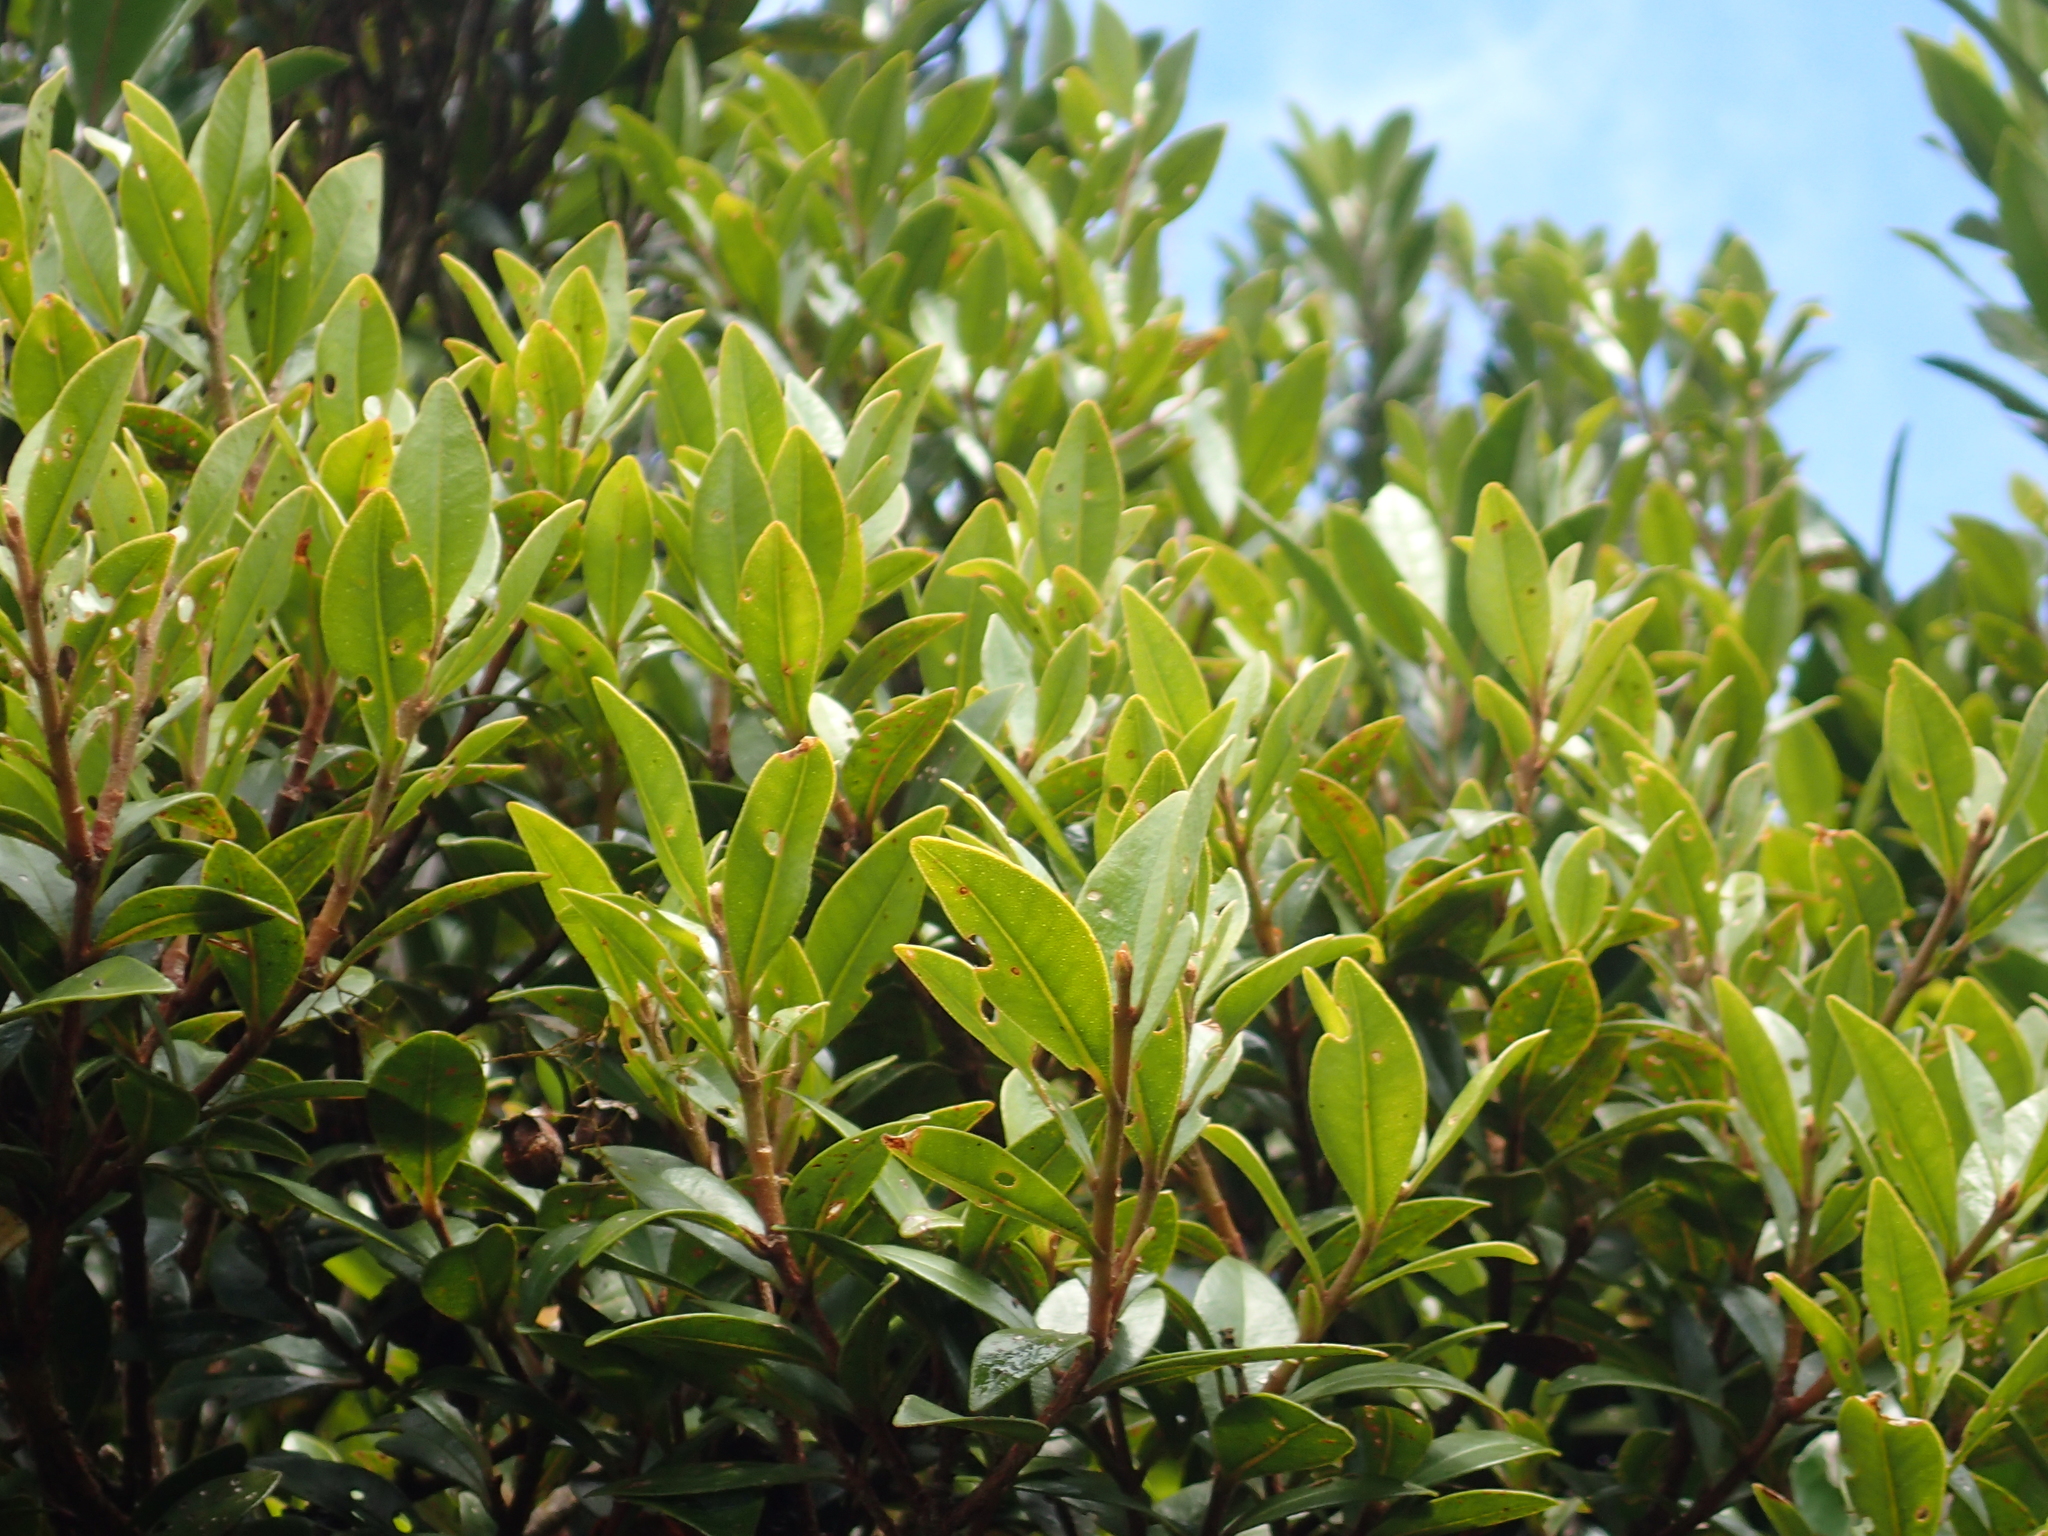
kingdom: Plantae
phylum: Tracheophyta
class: Magnoliopsida
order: Myrtales
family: Myrtaceae
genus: Metrosideros
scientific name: Metrosideros fulgens
